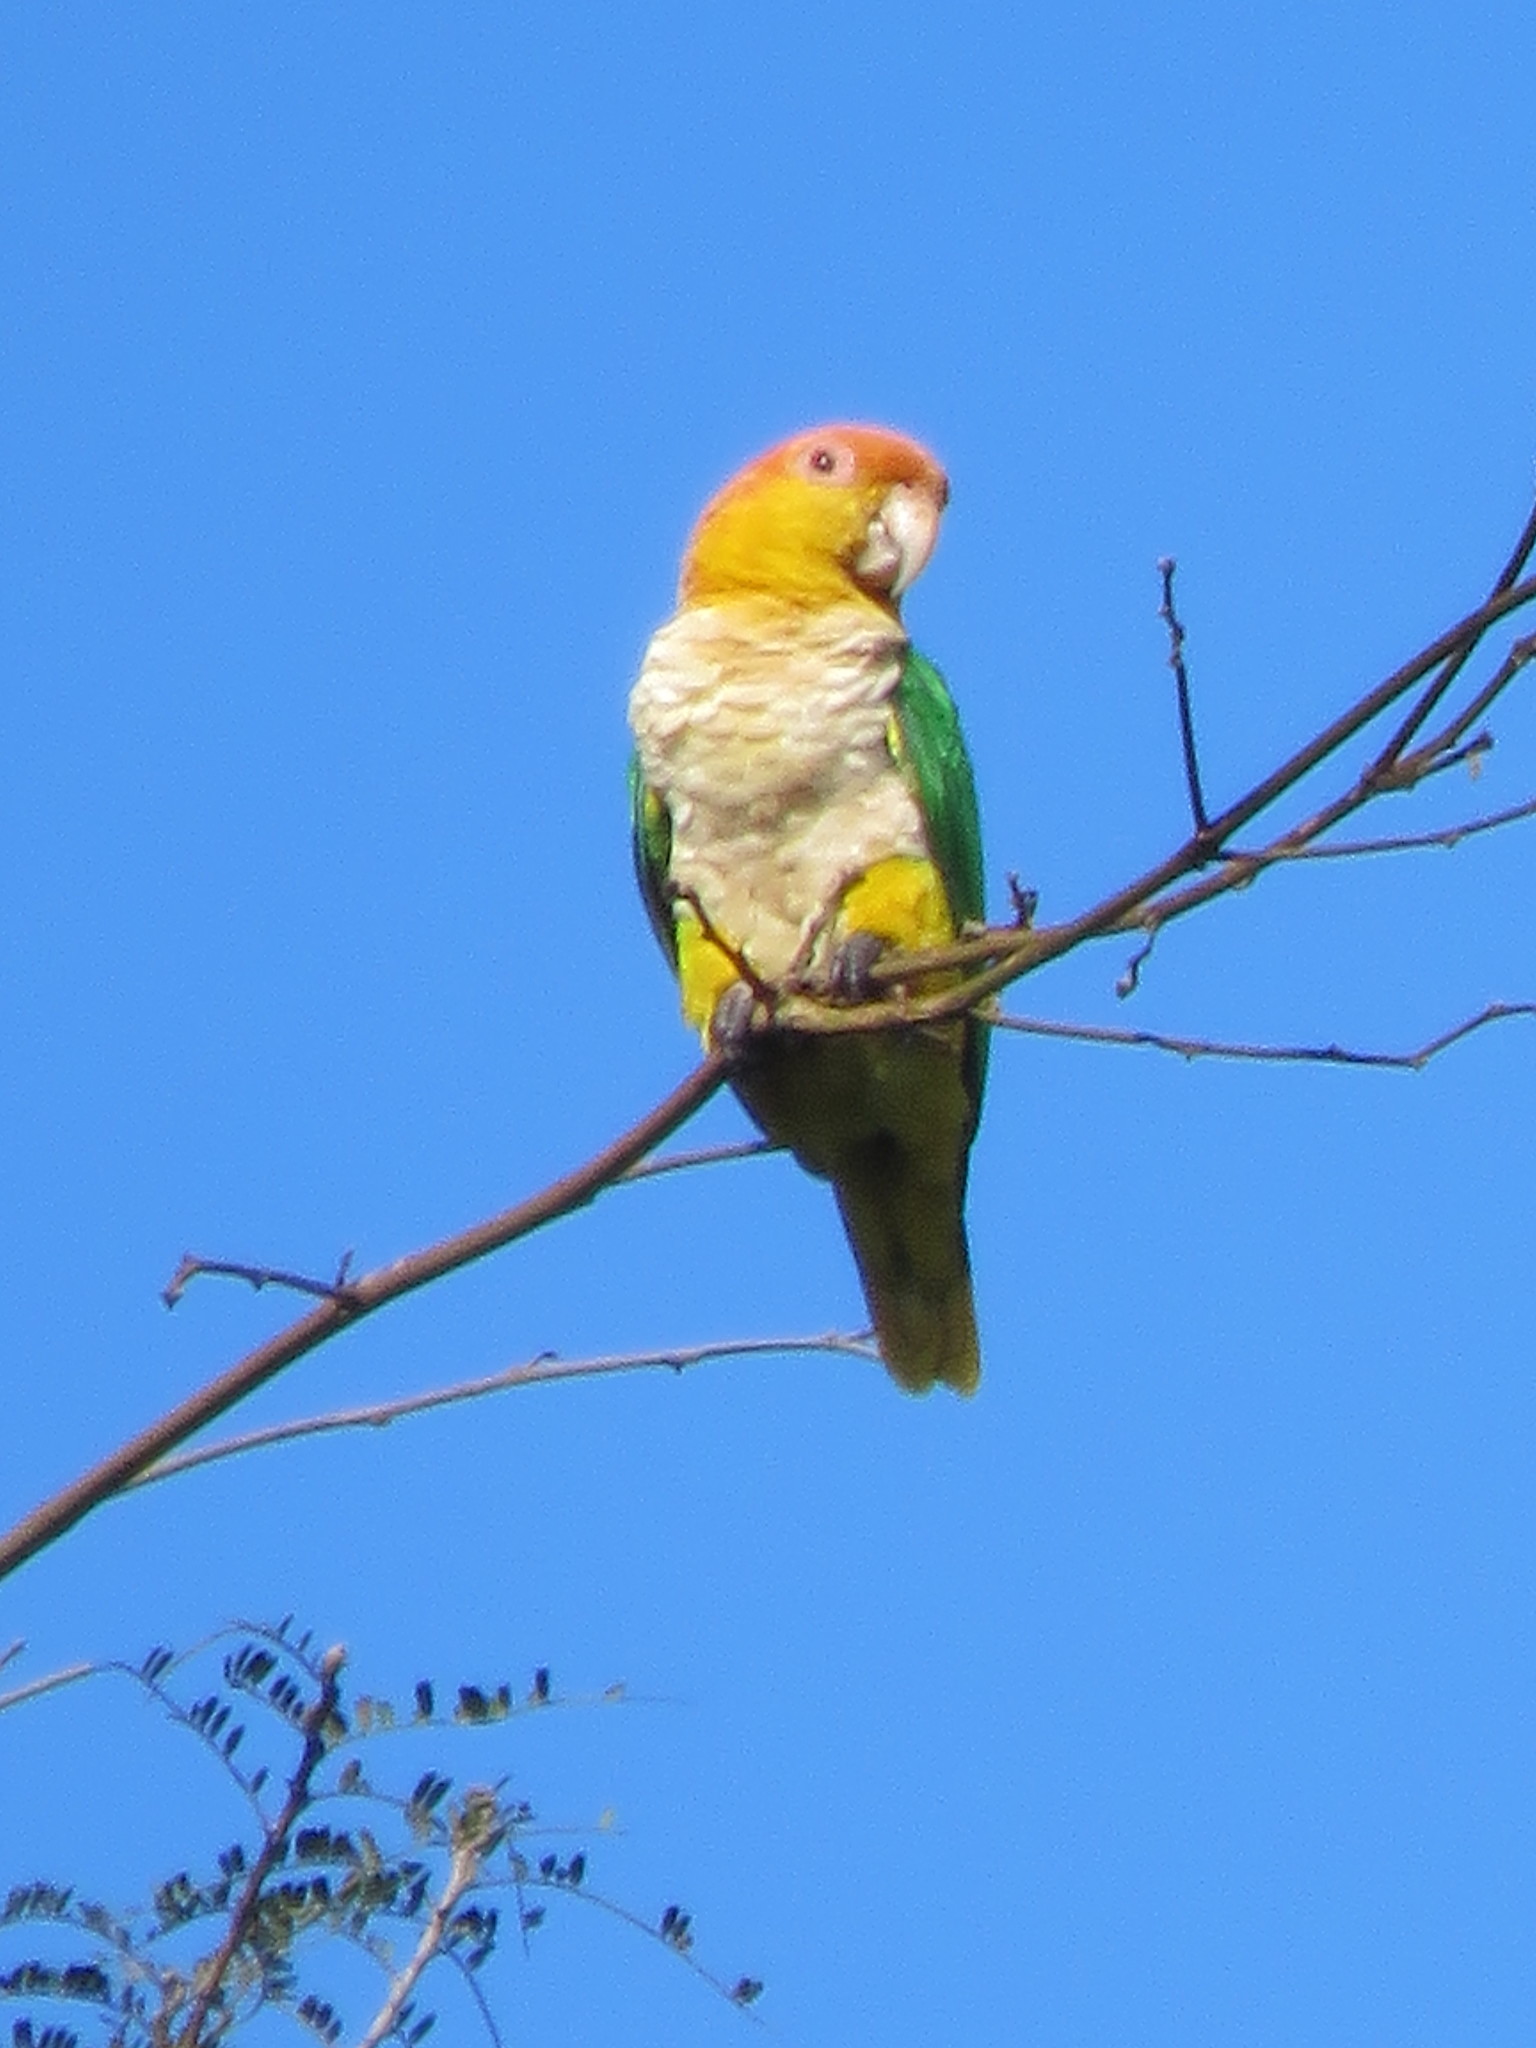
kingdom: Animalia
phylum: Chordata
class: Aves
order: Psittaciformes
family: Psittacidae
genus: Pionites
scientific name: Pionites leucogaster
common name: White-bellied parrot
